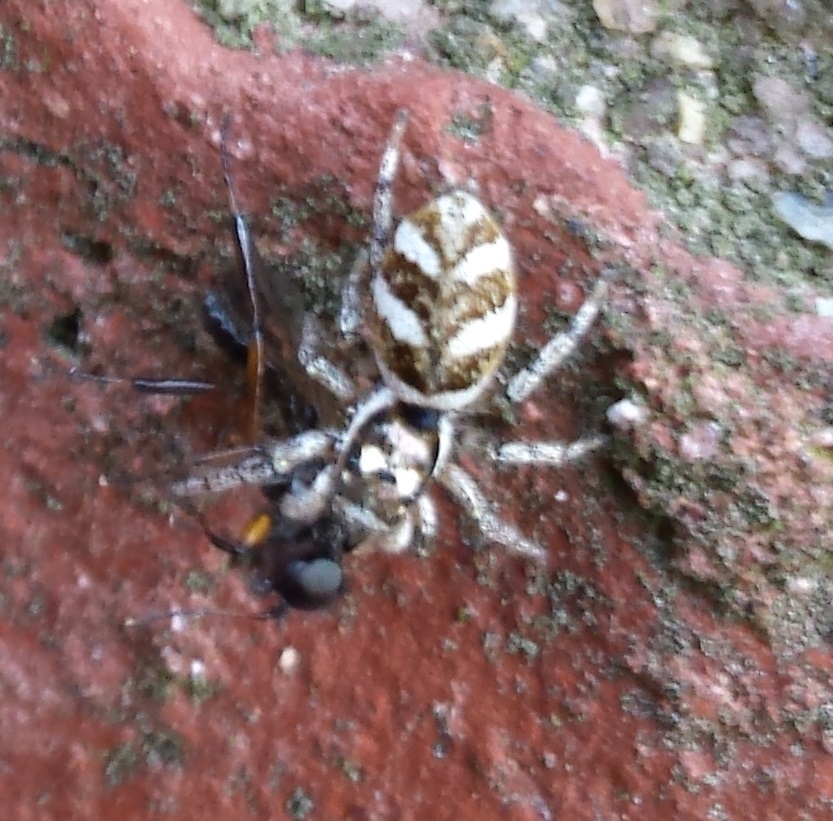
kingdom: Animalia
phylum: Arthropoda
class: Arachnida
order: Araneae
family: Salticidae
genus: Salticus
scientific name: Salticus scenicus
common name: Zebra jumper
